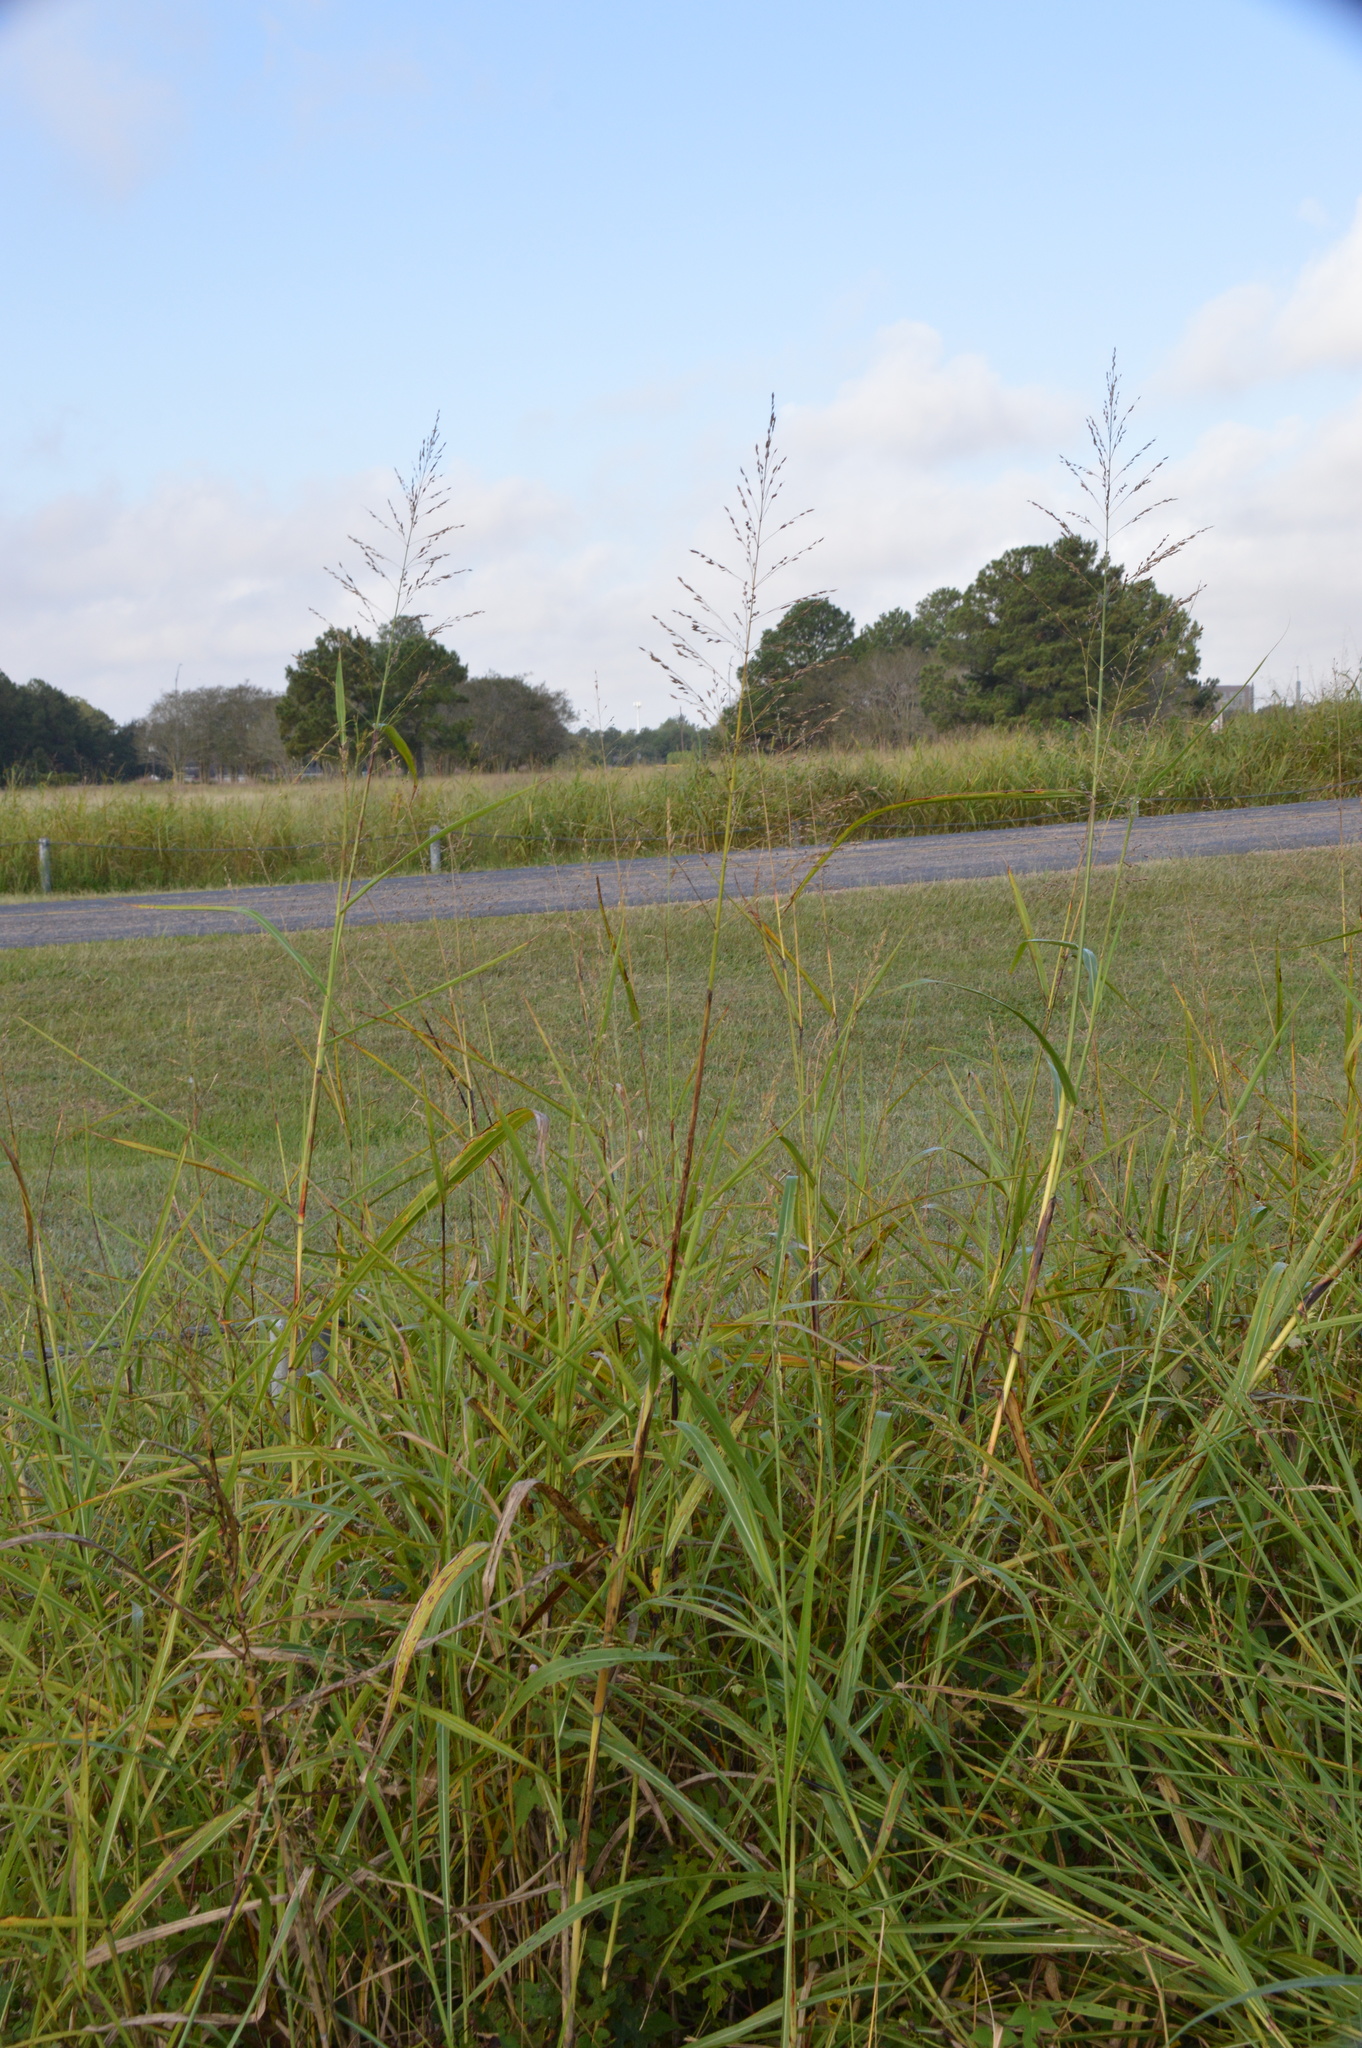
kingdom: Plantae
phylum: Tracheophyta
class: Liliopsida
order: Poales
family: Poaceae
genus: Sorghum
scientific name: Sorghum halepense
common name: Johnson-grass
